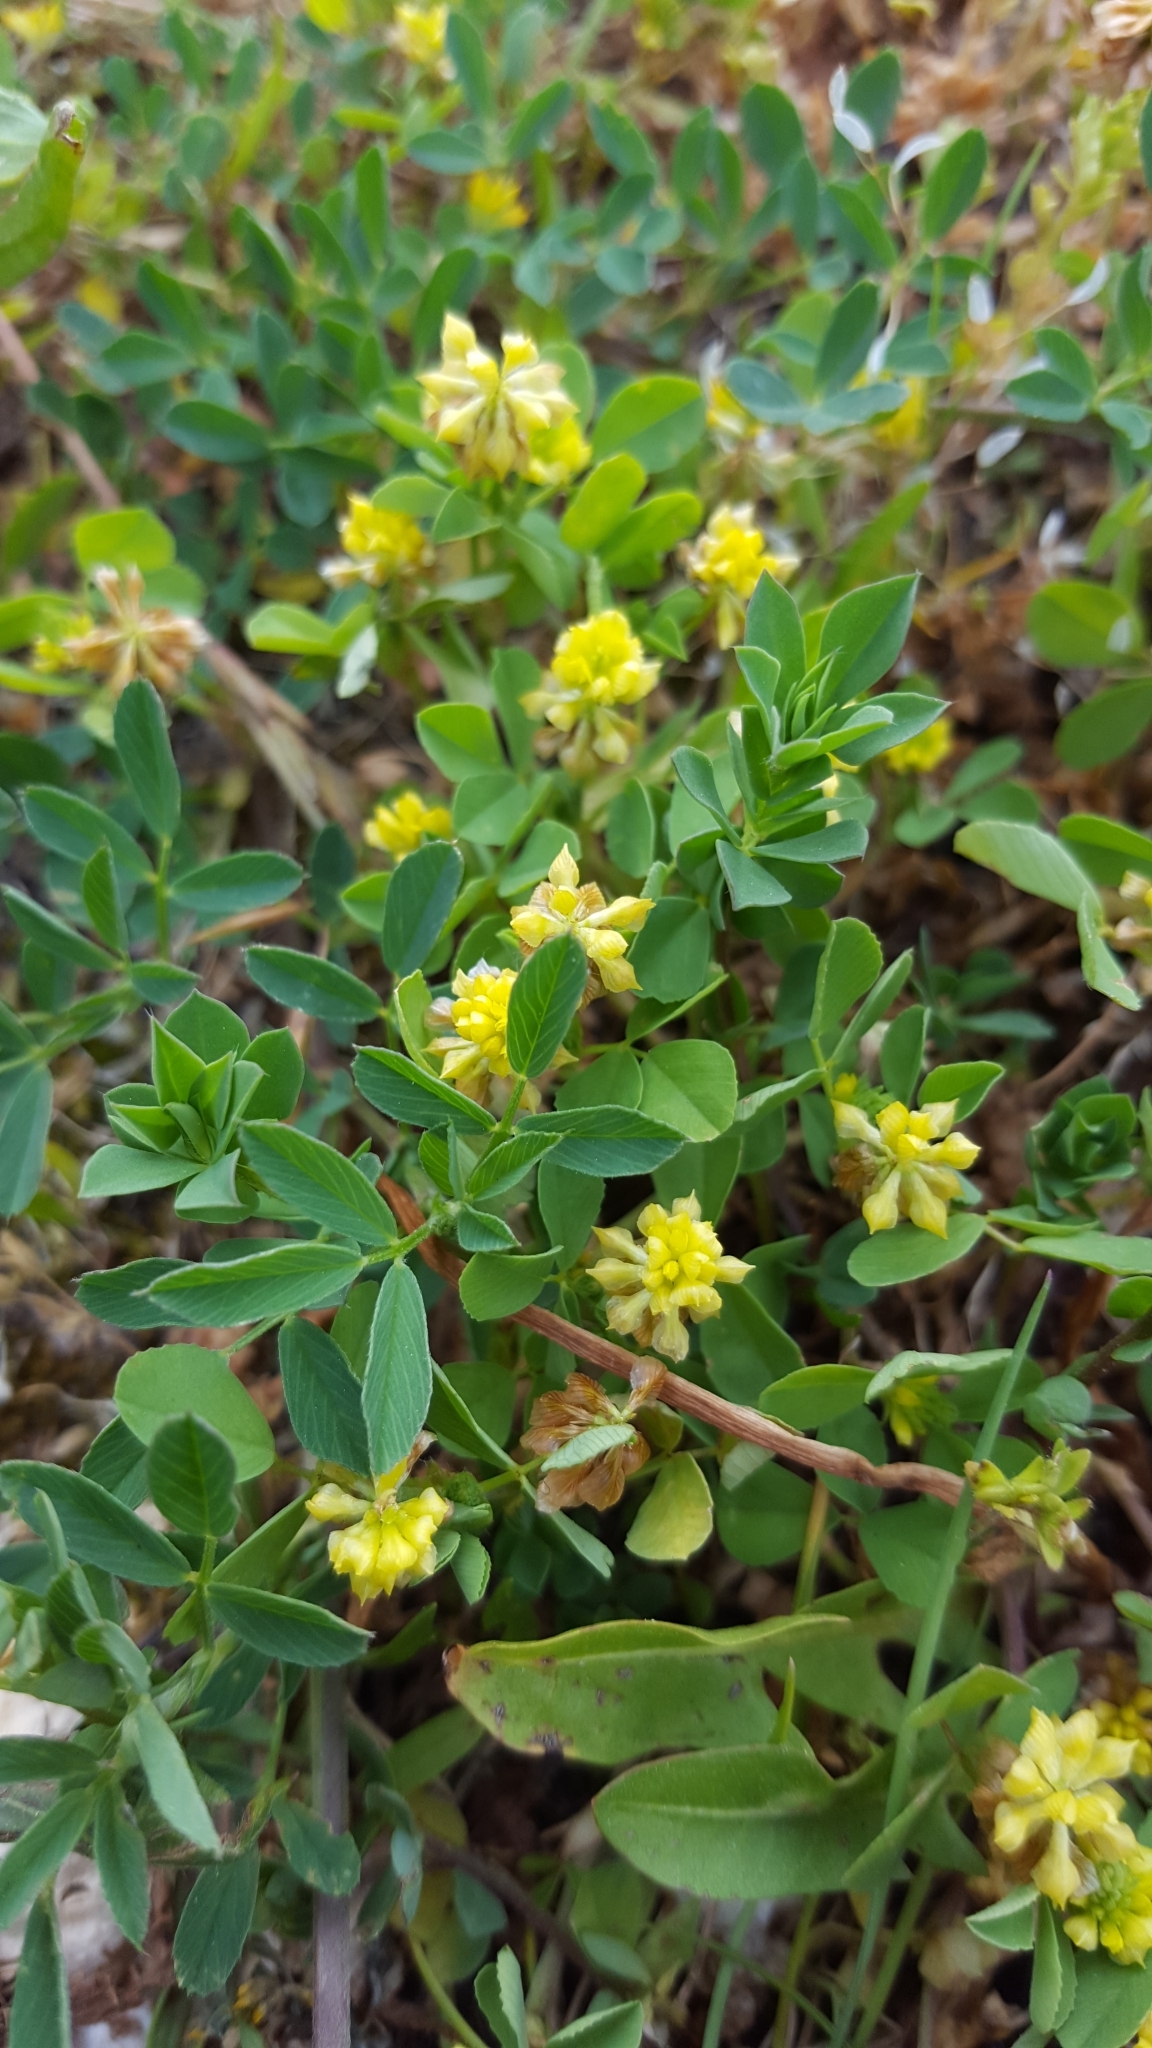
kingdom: Plantae
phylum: Tracheophyta
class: Magnoliopsida
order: Fabales
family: Fabaceae
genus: Trifolium
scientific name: Trifolium dubium
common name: Suckling clover
